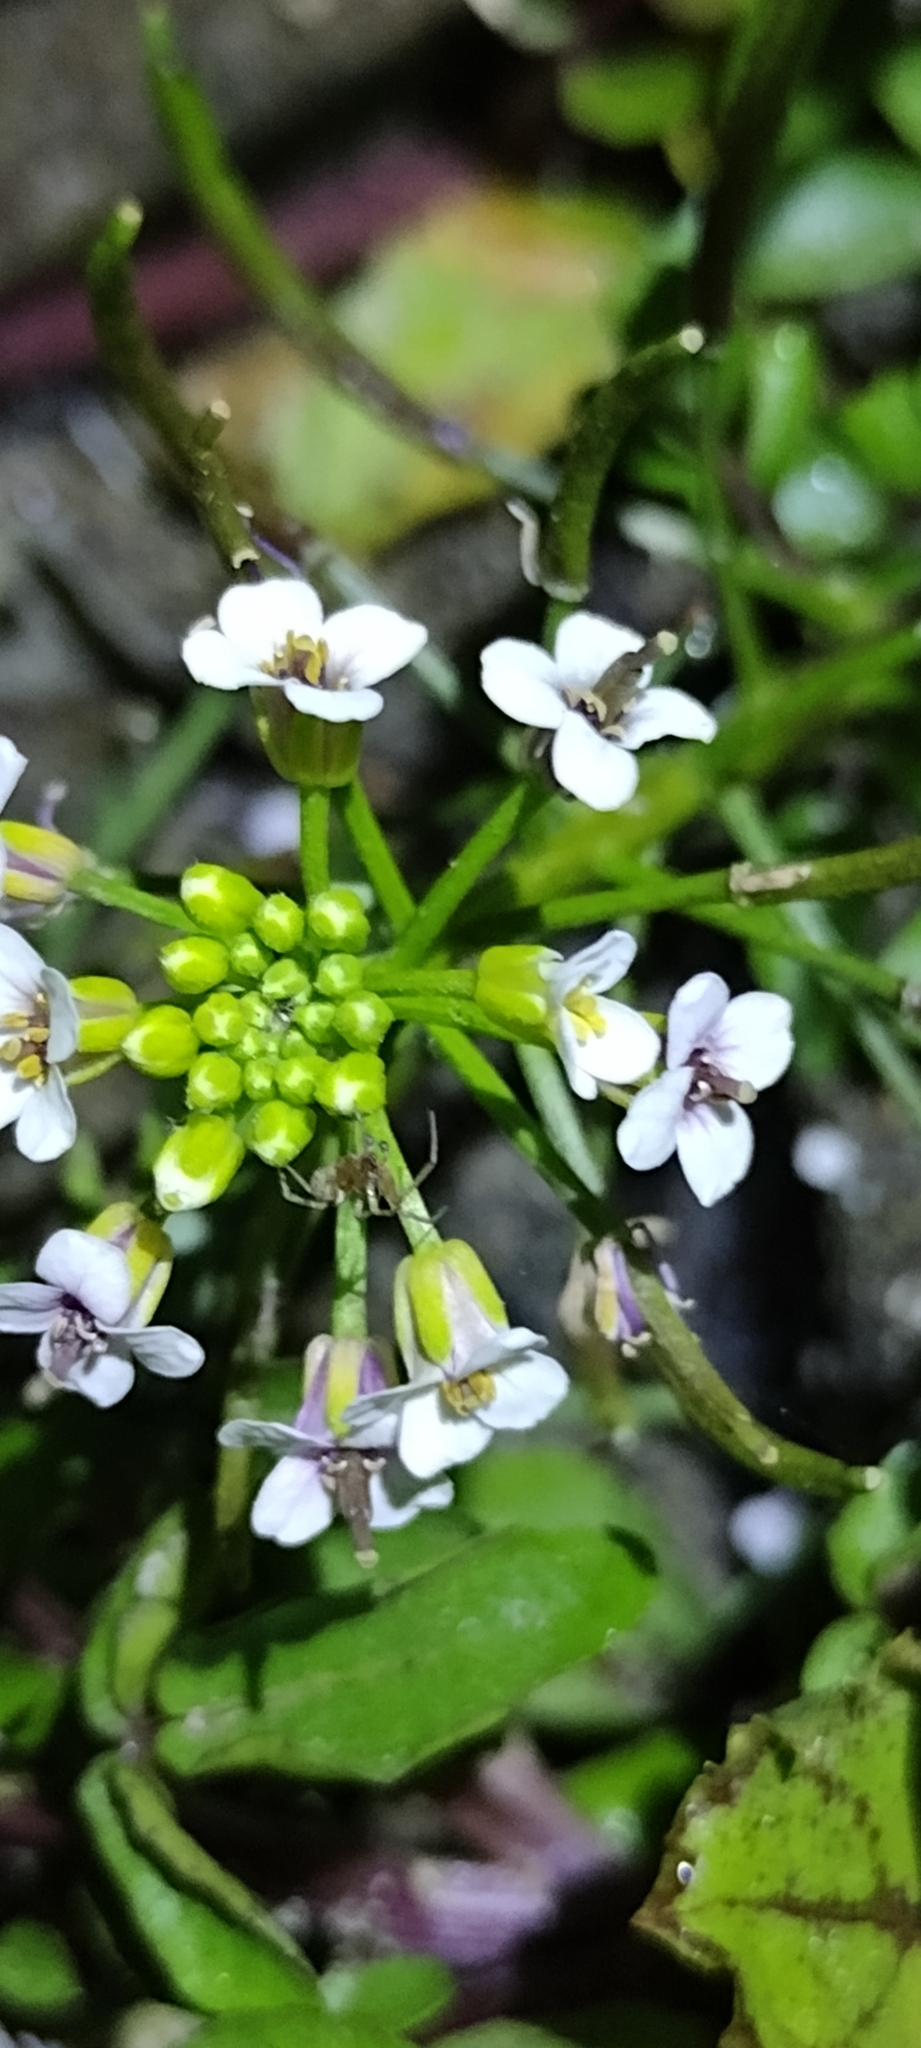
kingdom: Plantae
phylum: Tracheophyta
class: Magnoliopsida
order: Brassicales
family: Brassicaceae
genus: Nasturtium
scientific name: Nasturtium officinale
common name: Watercress
